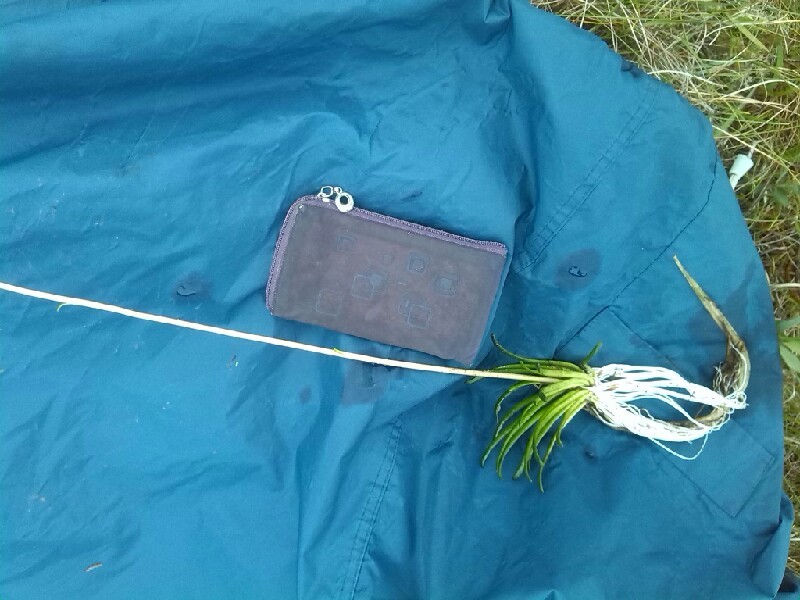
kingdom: Plantae
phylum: Tracheophyta
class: Magnoliopsida
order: Asterales
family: Campanulaceae
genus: Lobelia
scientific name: Lobelia dortmanna
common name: Water lobelia
